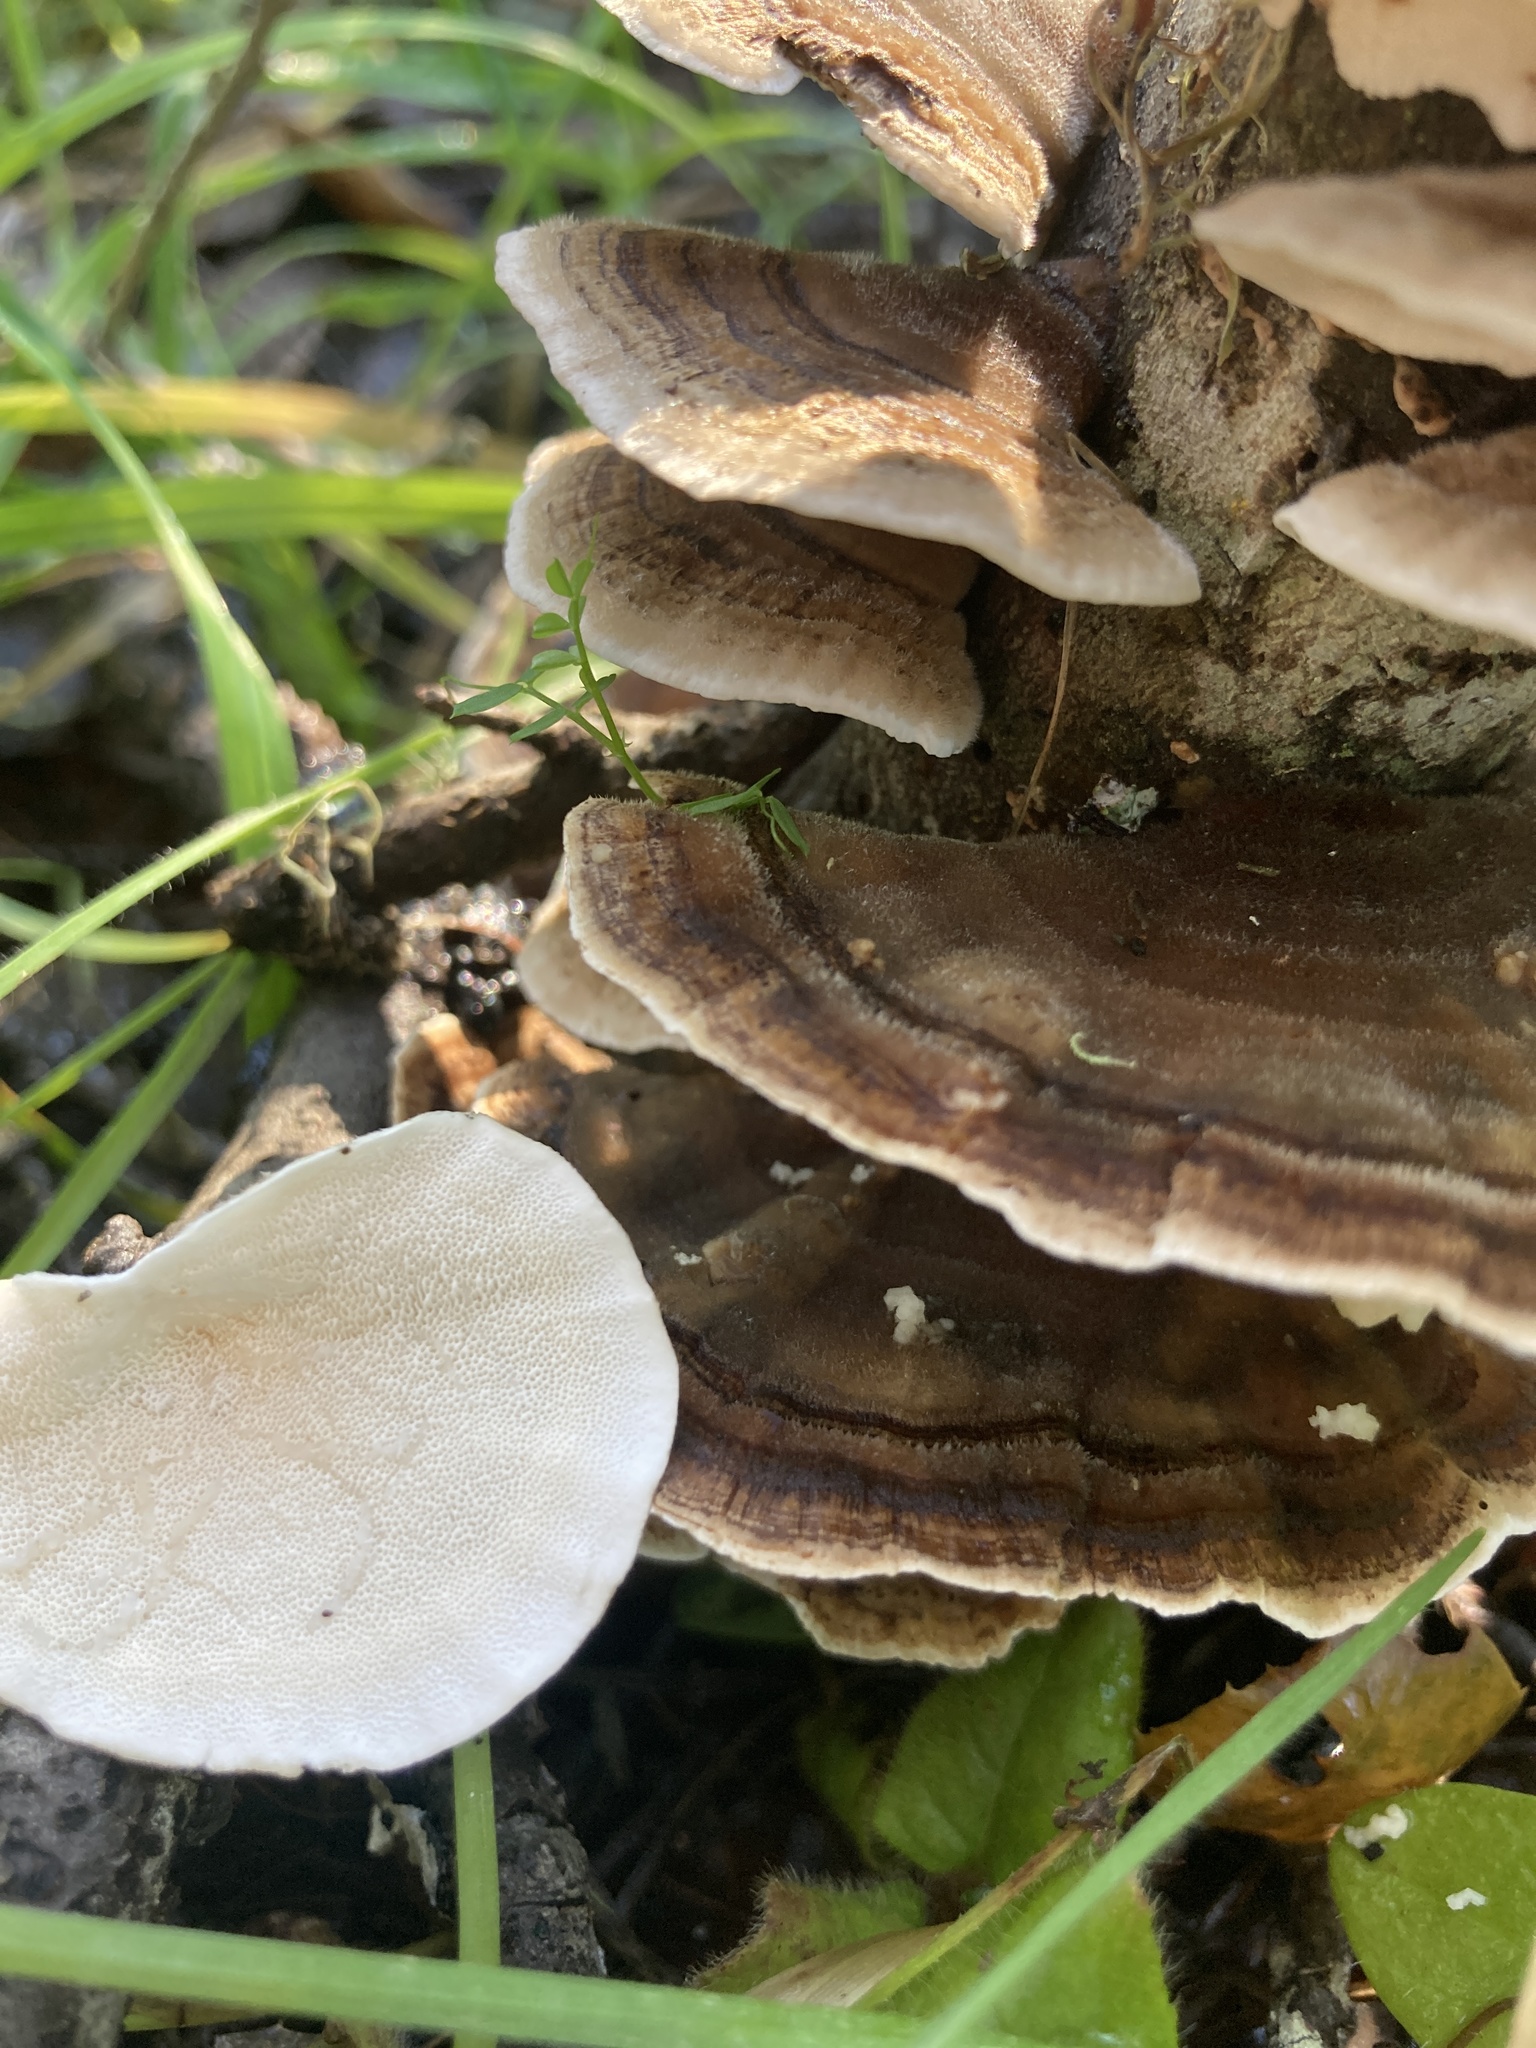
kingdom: Fungi
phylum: Basidiomycota
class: Agaricomycetes
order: Polyporales
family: Polyporaceae
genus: Trametes
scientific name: Trametes versicolor
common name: Turkeytail
